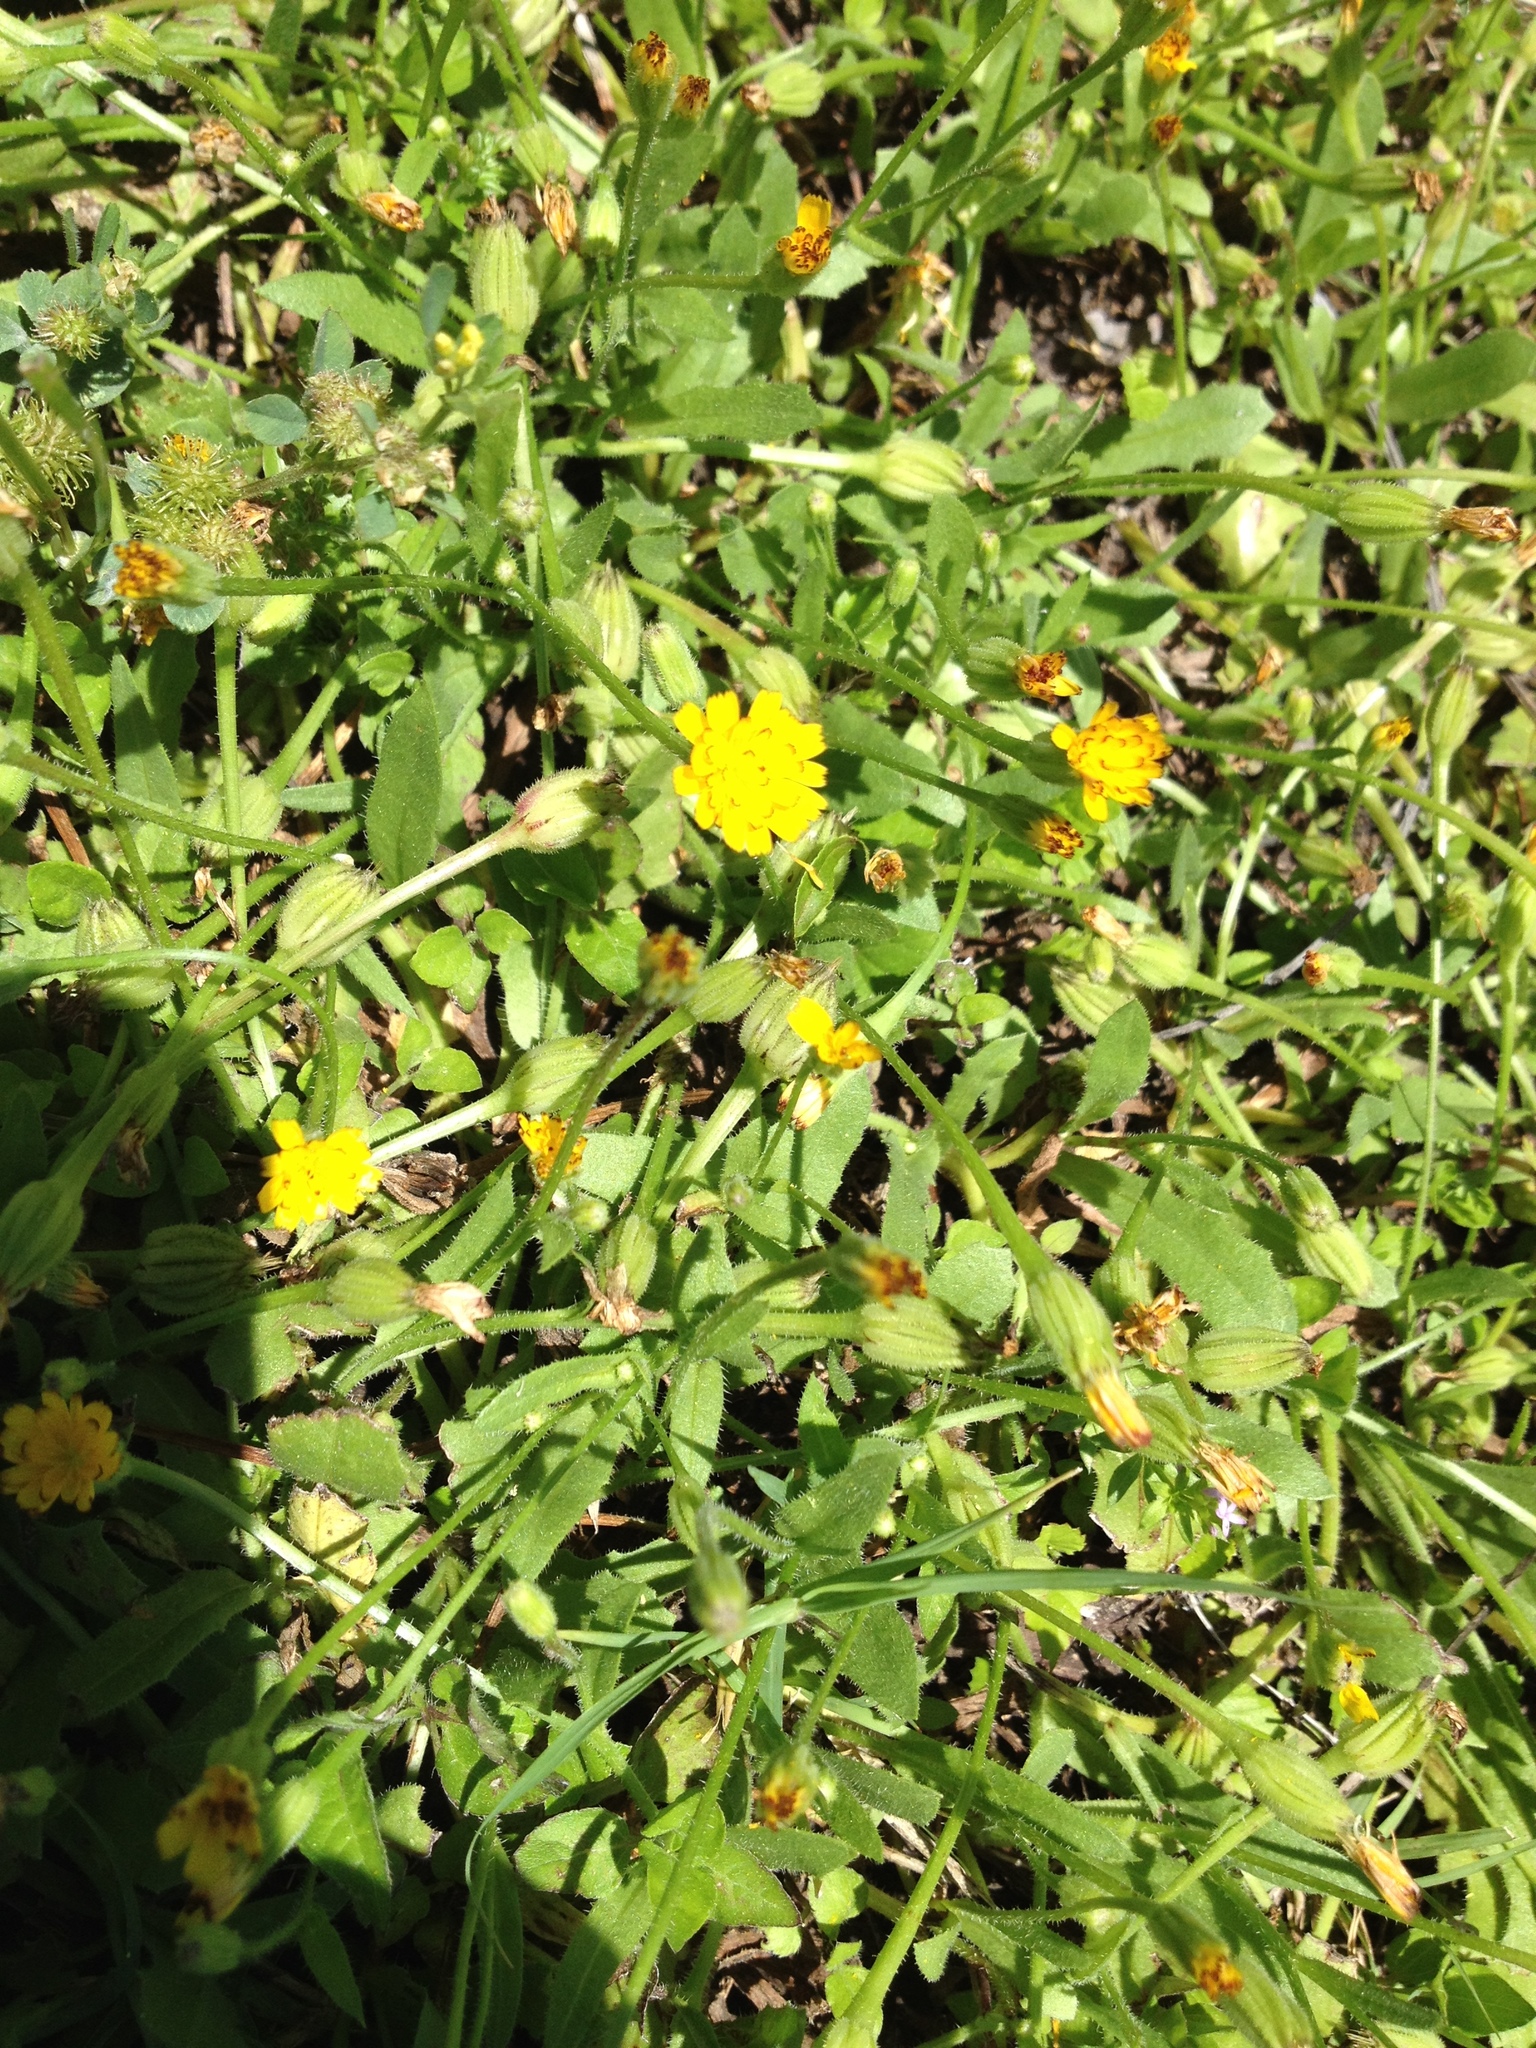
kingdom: Plantae
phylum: Tracheophyta
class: Magnoliopsida
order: Asterales
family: Asteraceae
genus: Hedypnois
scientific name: Hedypnois rhagadioloides
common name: Cretan weed
